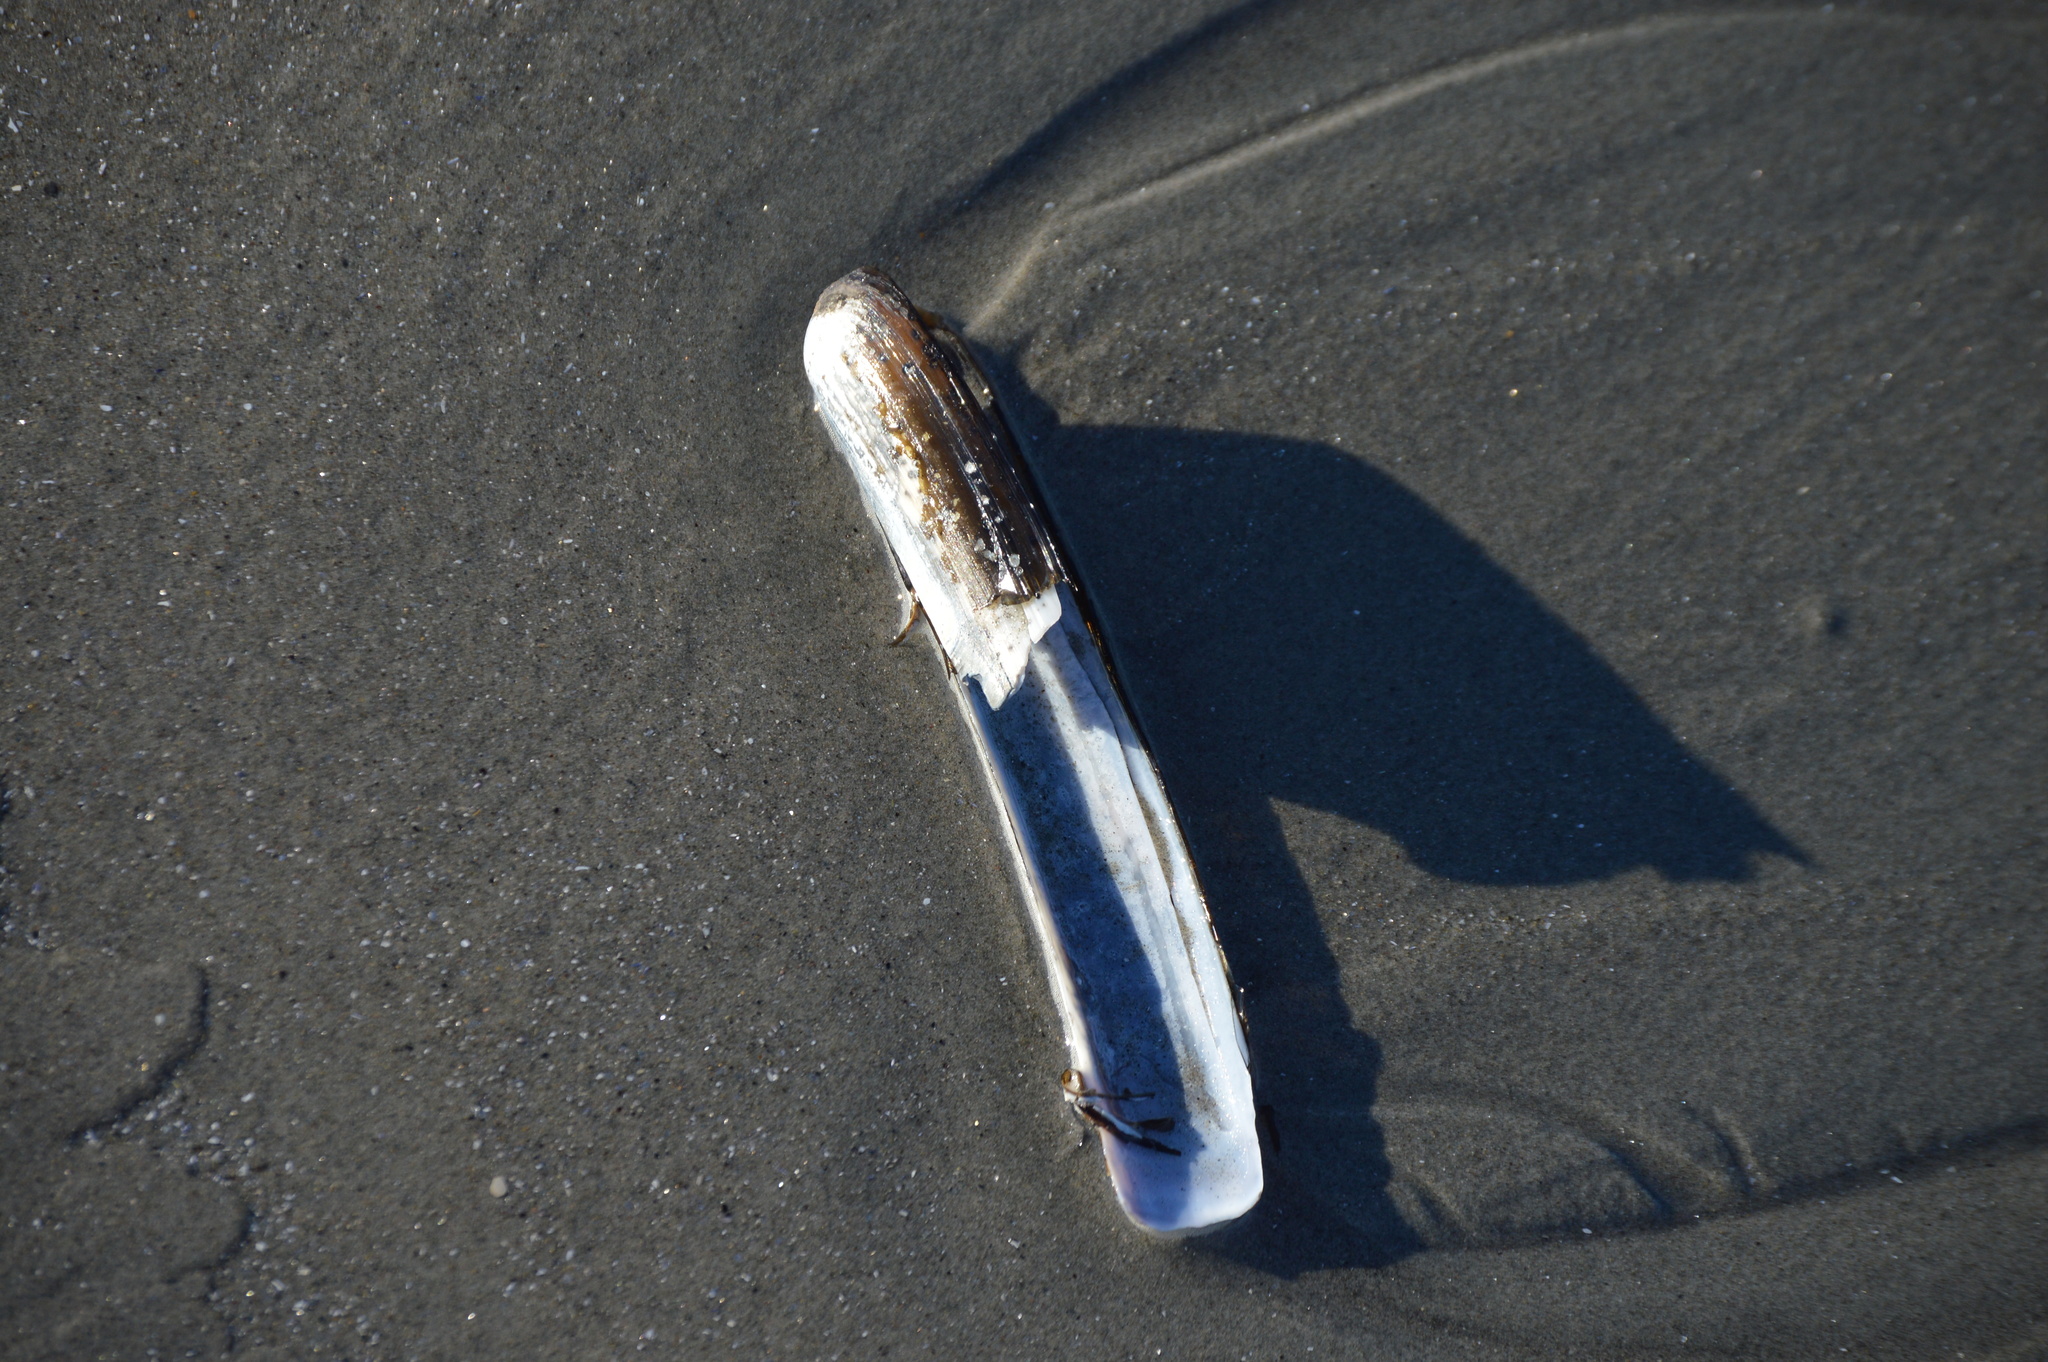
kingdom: Animalia
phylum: Mollusca
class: Bivalvia
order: Adapedonta
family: Pharidae
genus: Ensis
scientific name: Ensis leei
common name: American jack knife clam
